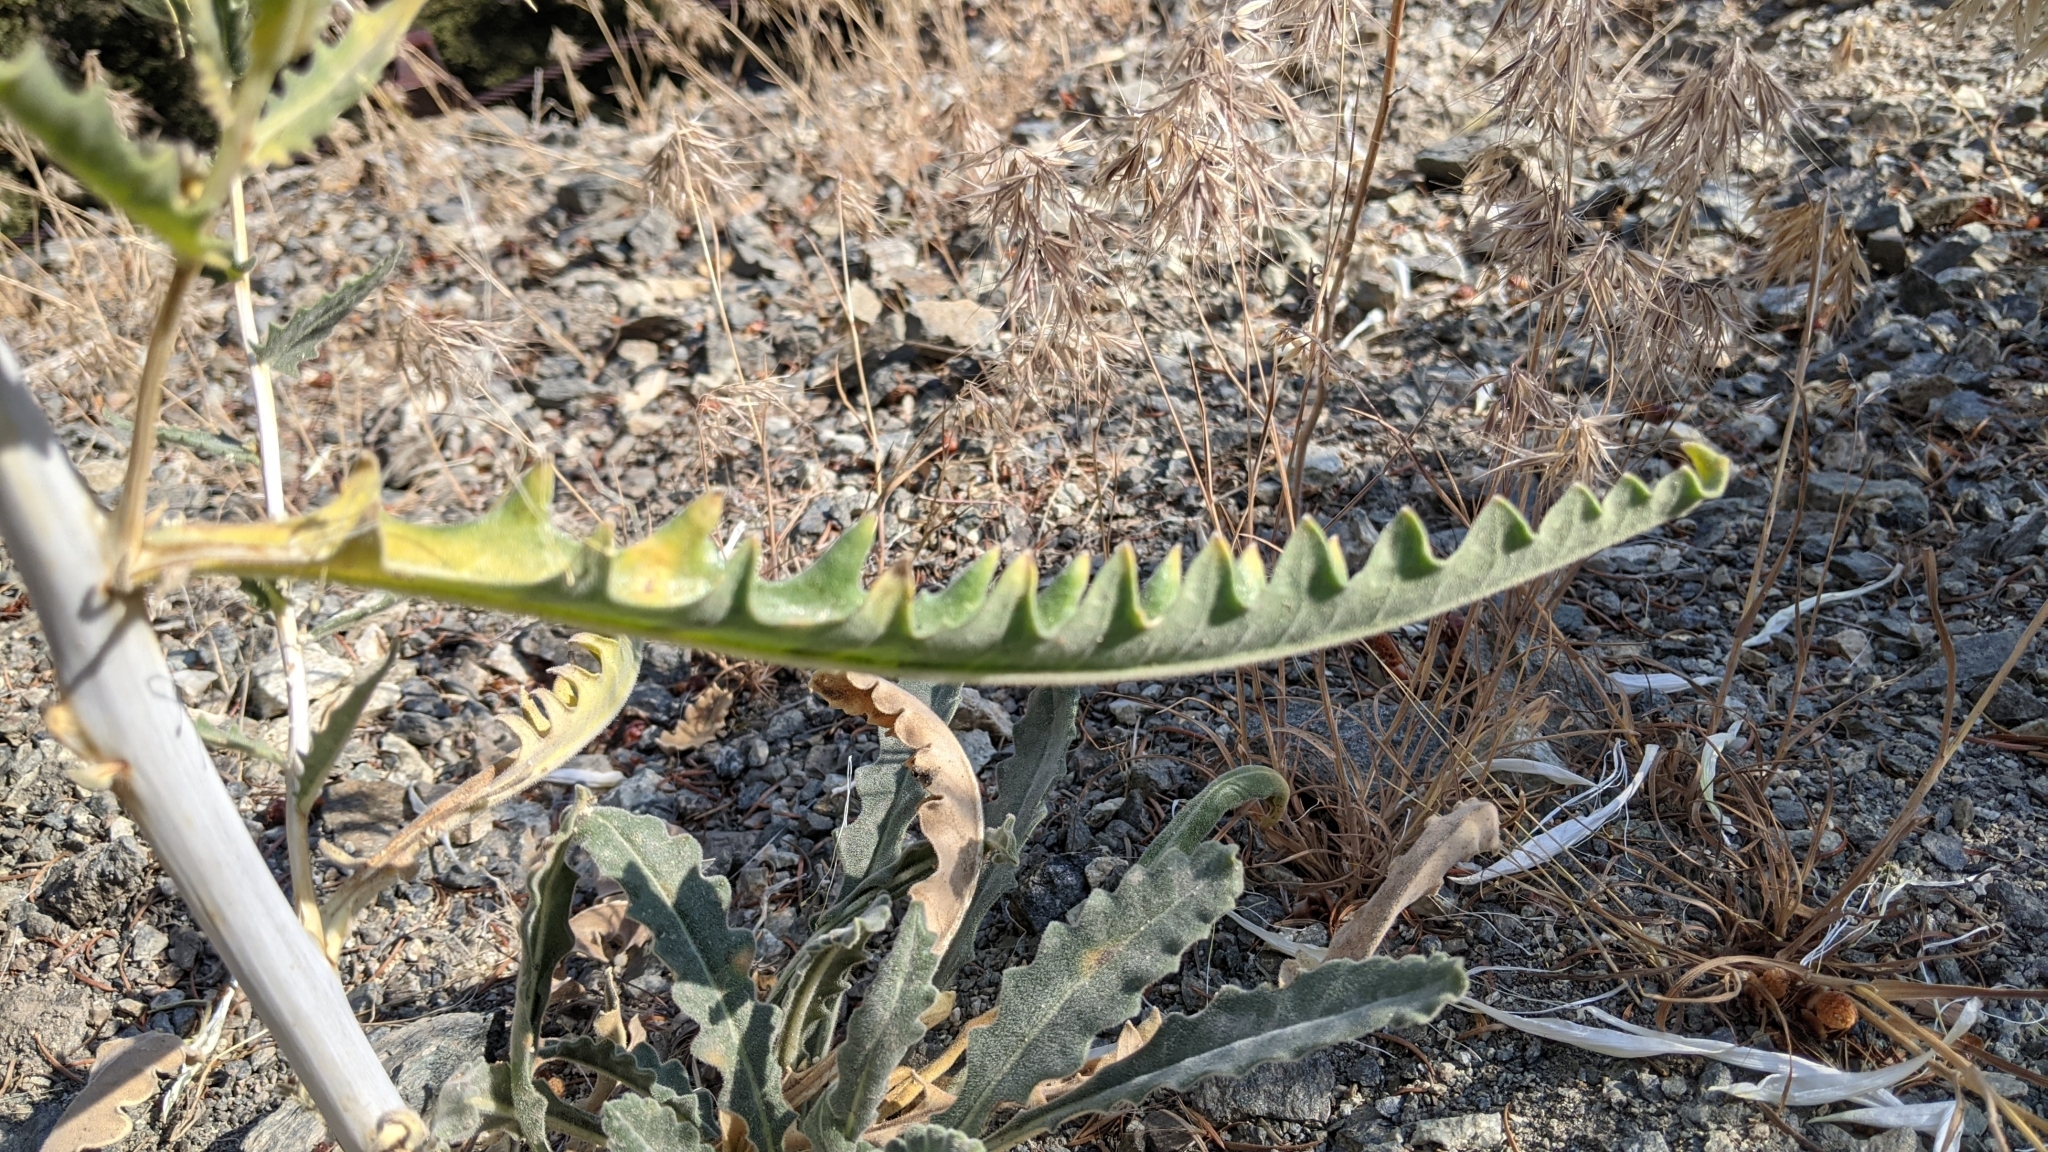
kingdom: Plantae
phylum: Tracheophyta
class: Magnoliopsida
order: Cornales
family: Loasaceae
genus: Mentzelia
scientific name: Mentzelia laevicaulis
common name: Smooth-stem blazingstar
